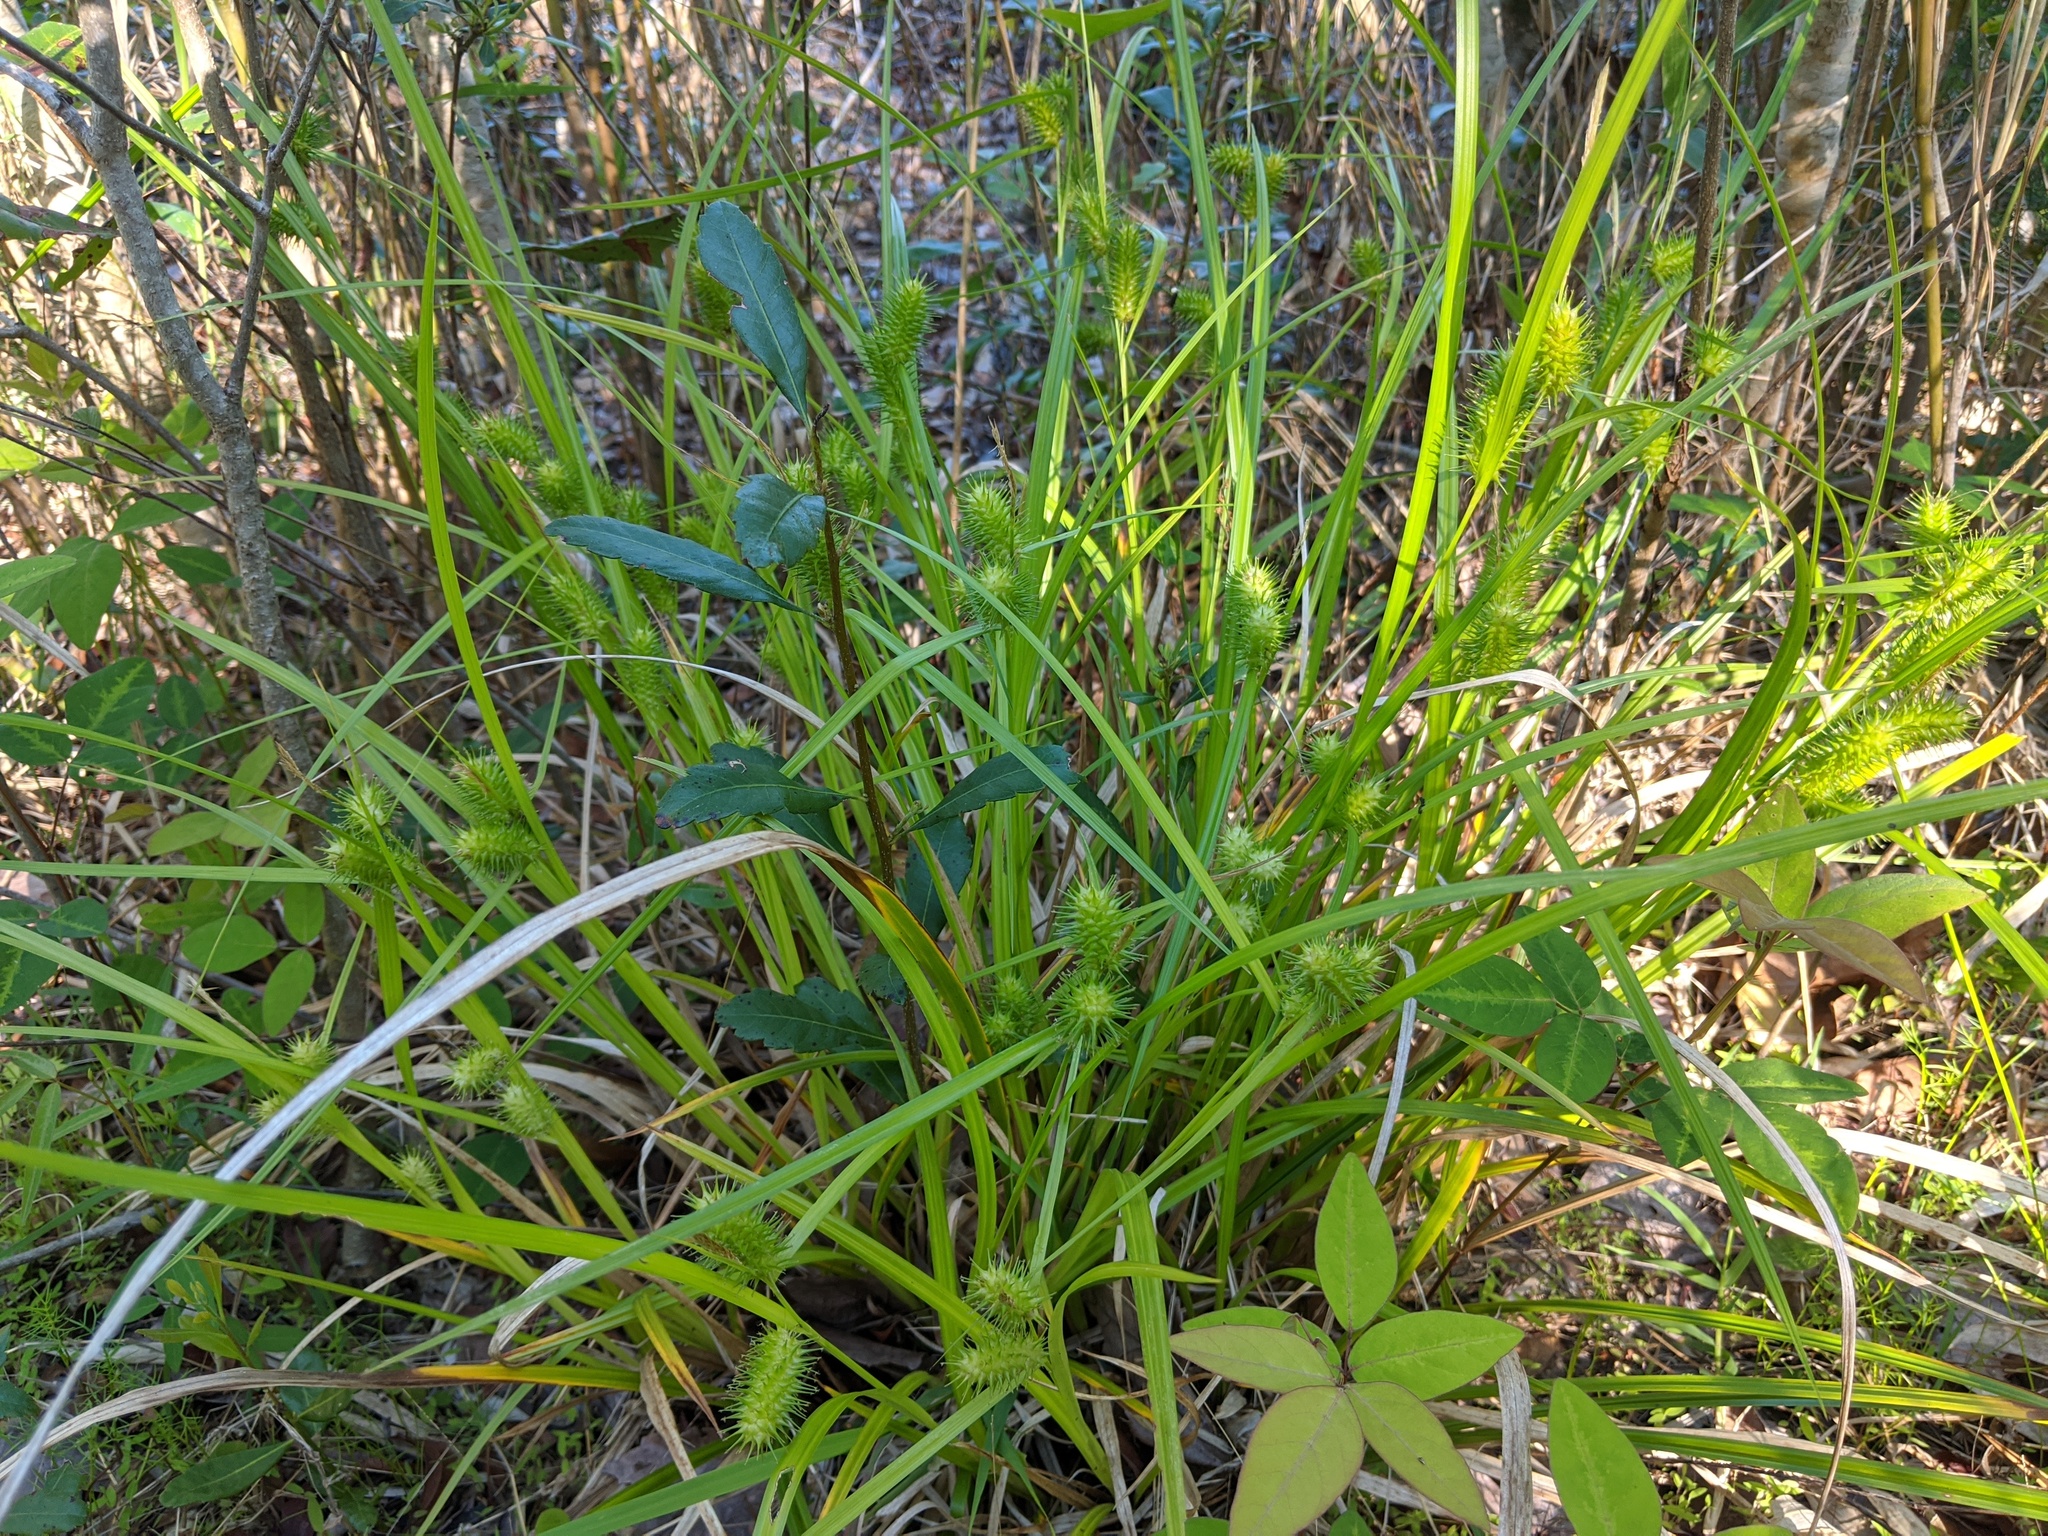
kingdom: Plantae
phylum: Tracheophyta
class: Liliopsida
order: Poales
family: Cyperaceae
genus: Carex
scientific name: Carex lurida
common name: Sallow sedge
